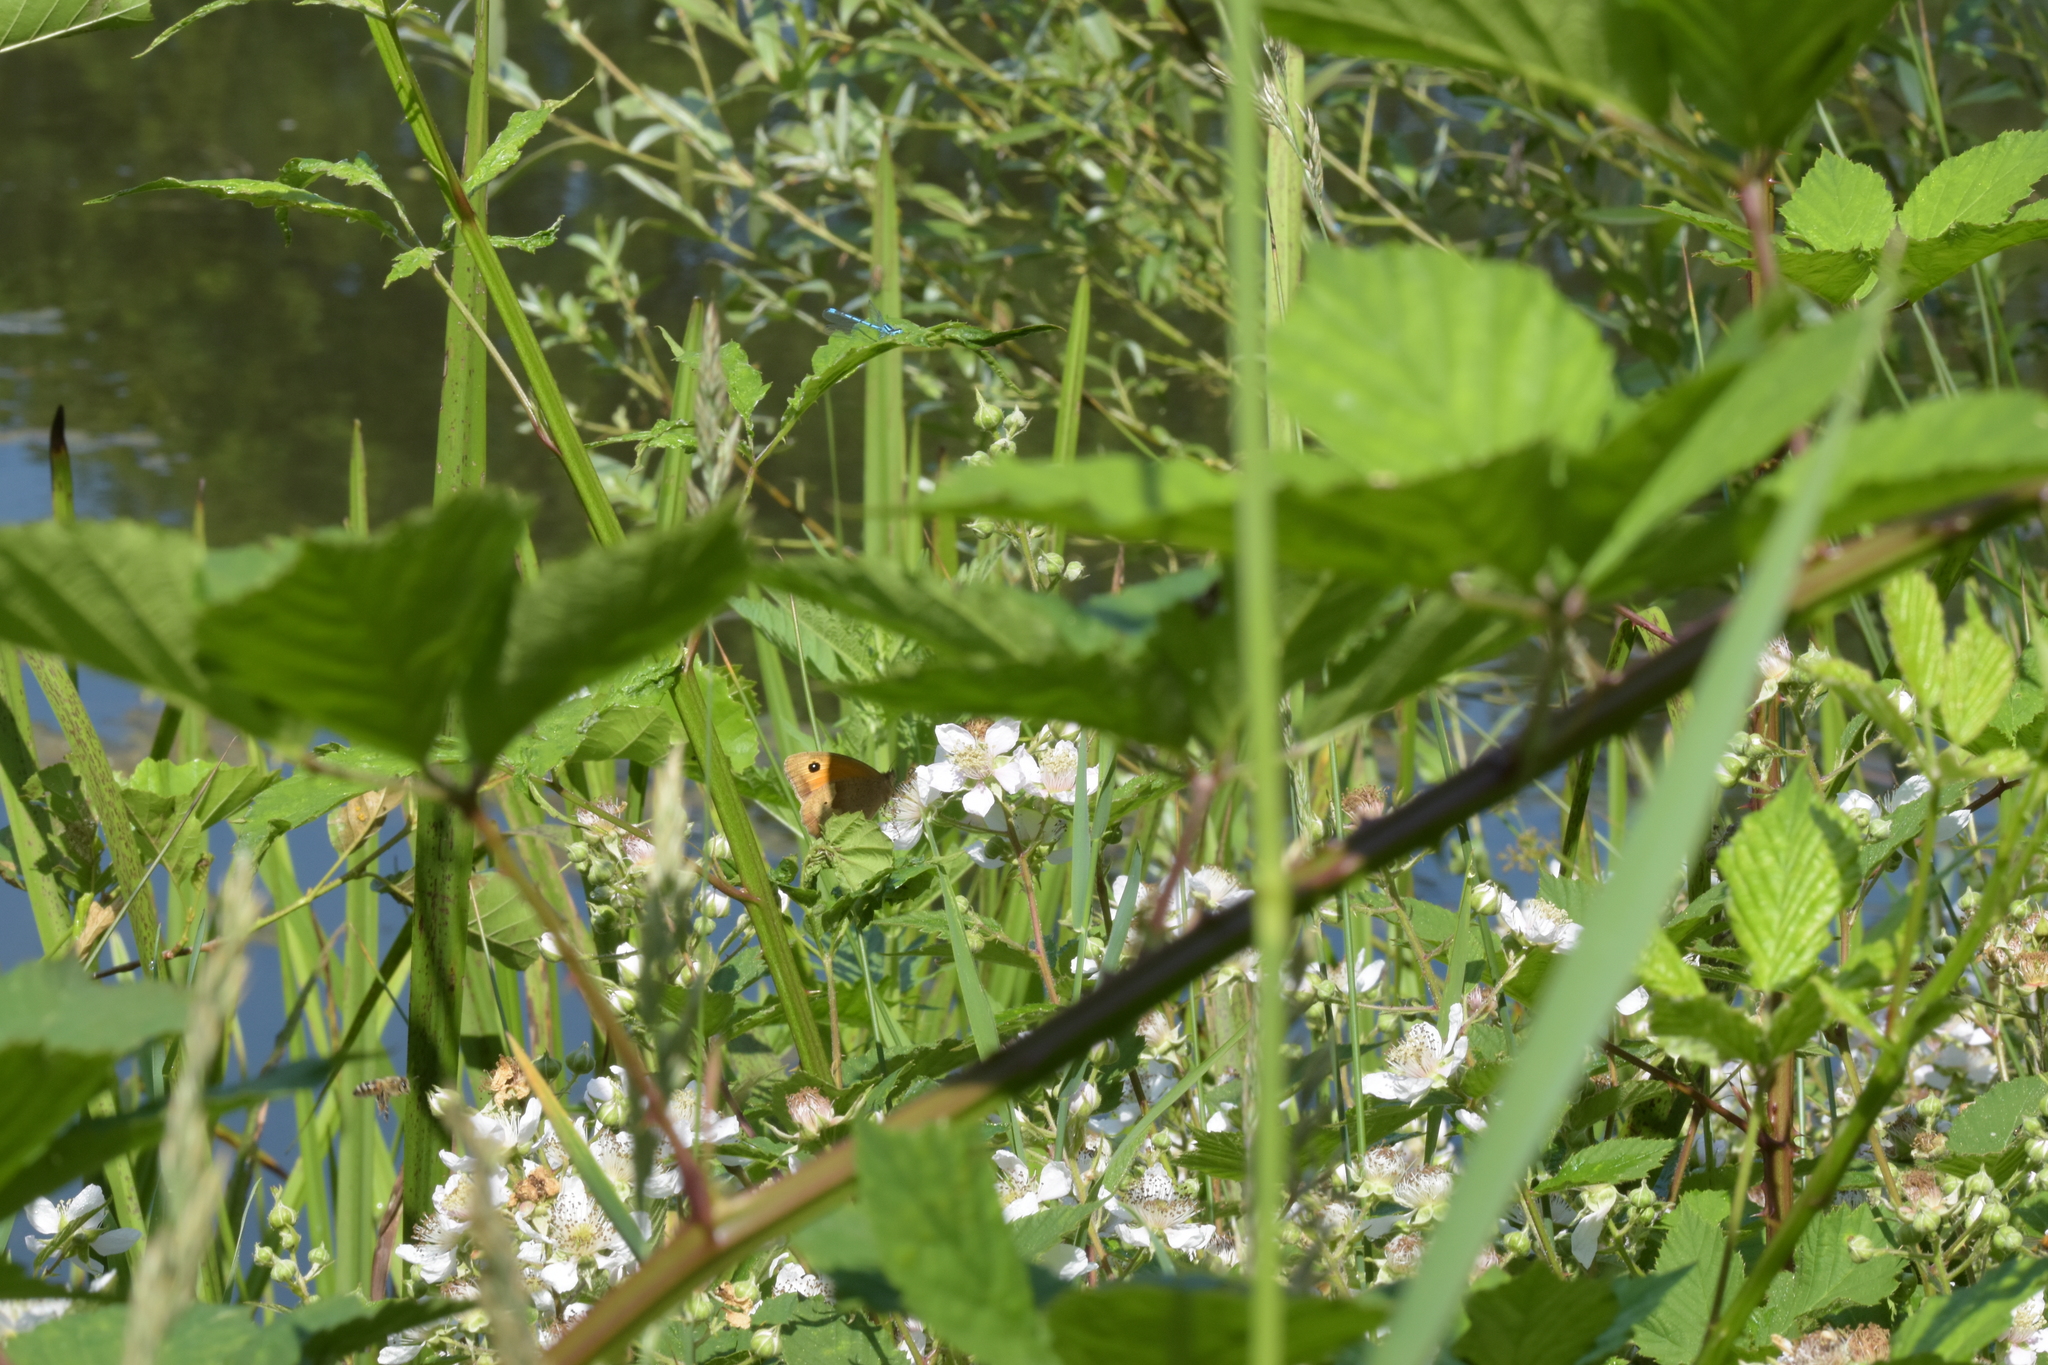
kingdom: Animalia
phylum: Arthropoda
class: Insecta
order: Lepidoptera
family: Nymphalidae
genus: Maniola
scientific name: Maniola jurtina
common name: Meadow brown
